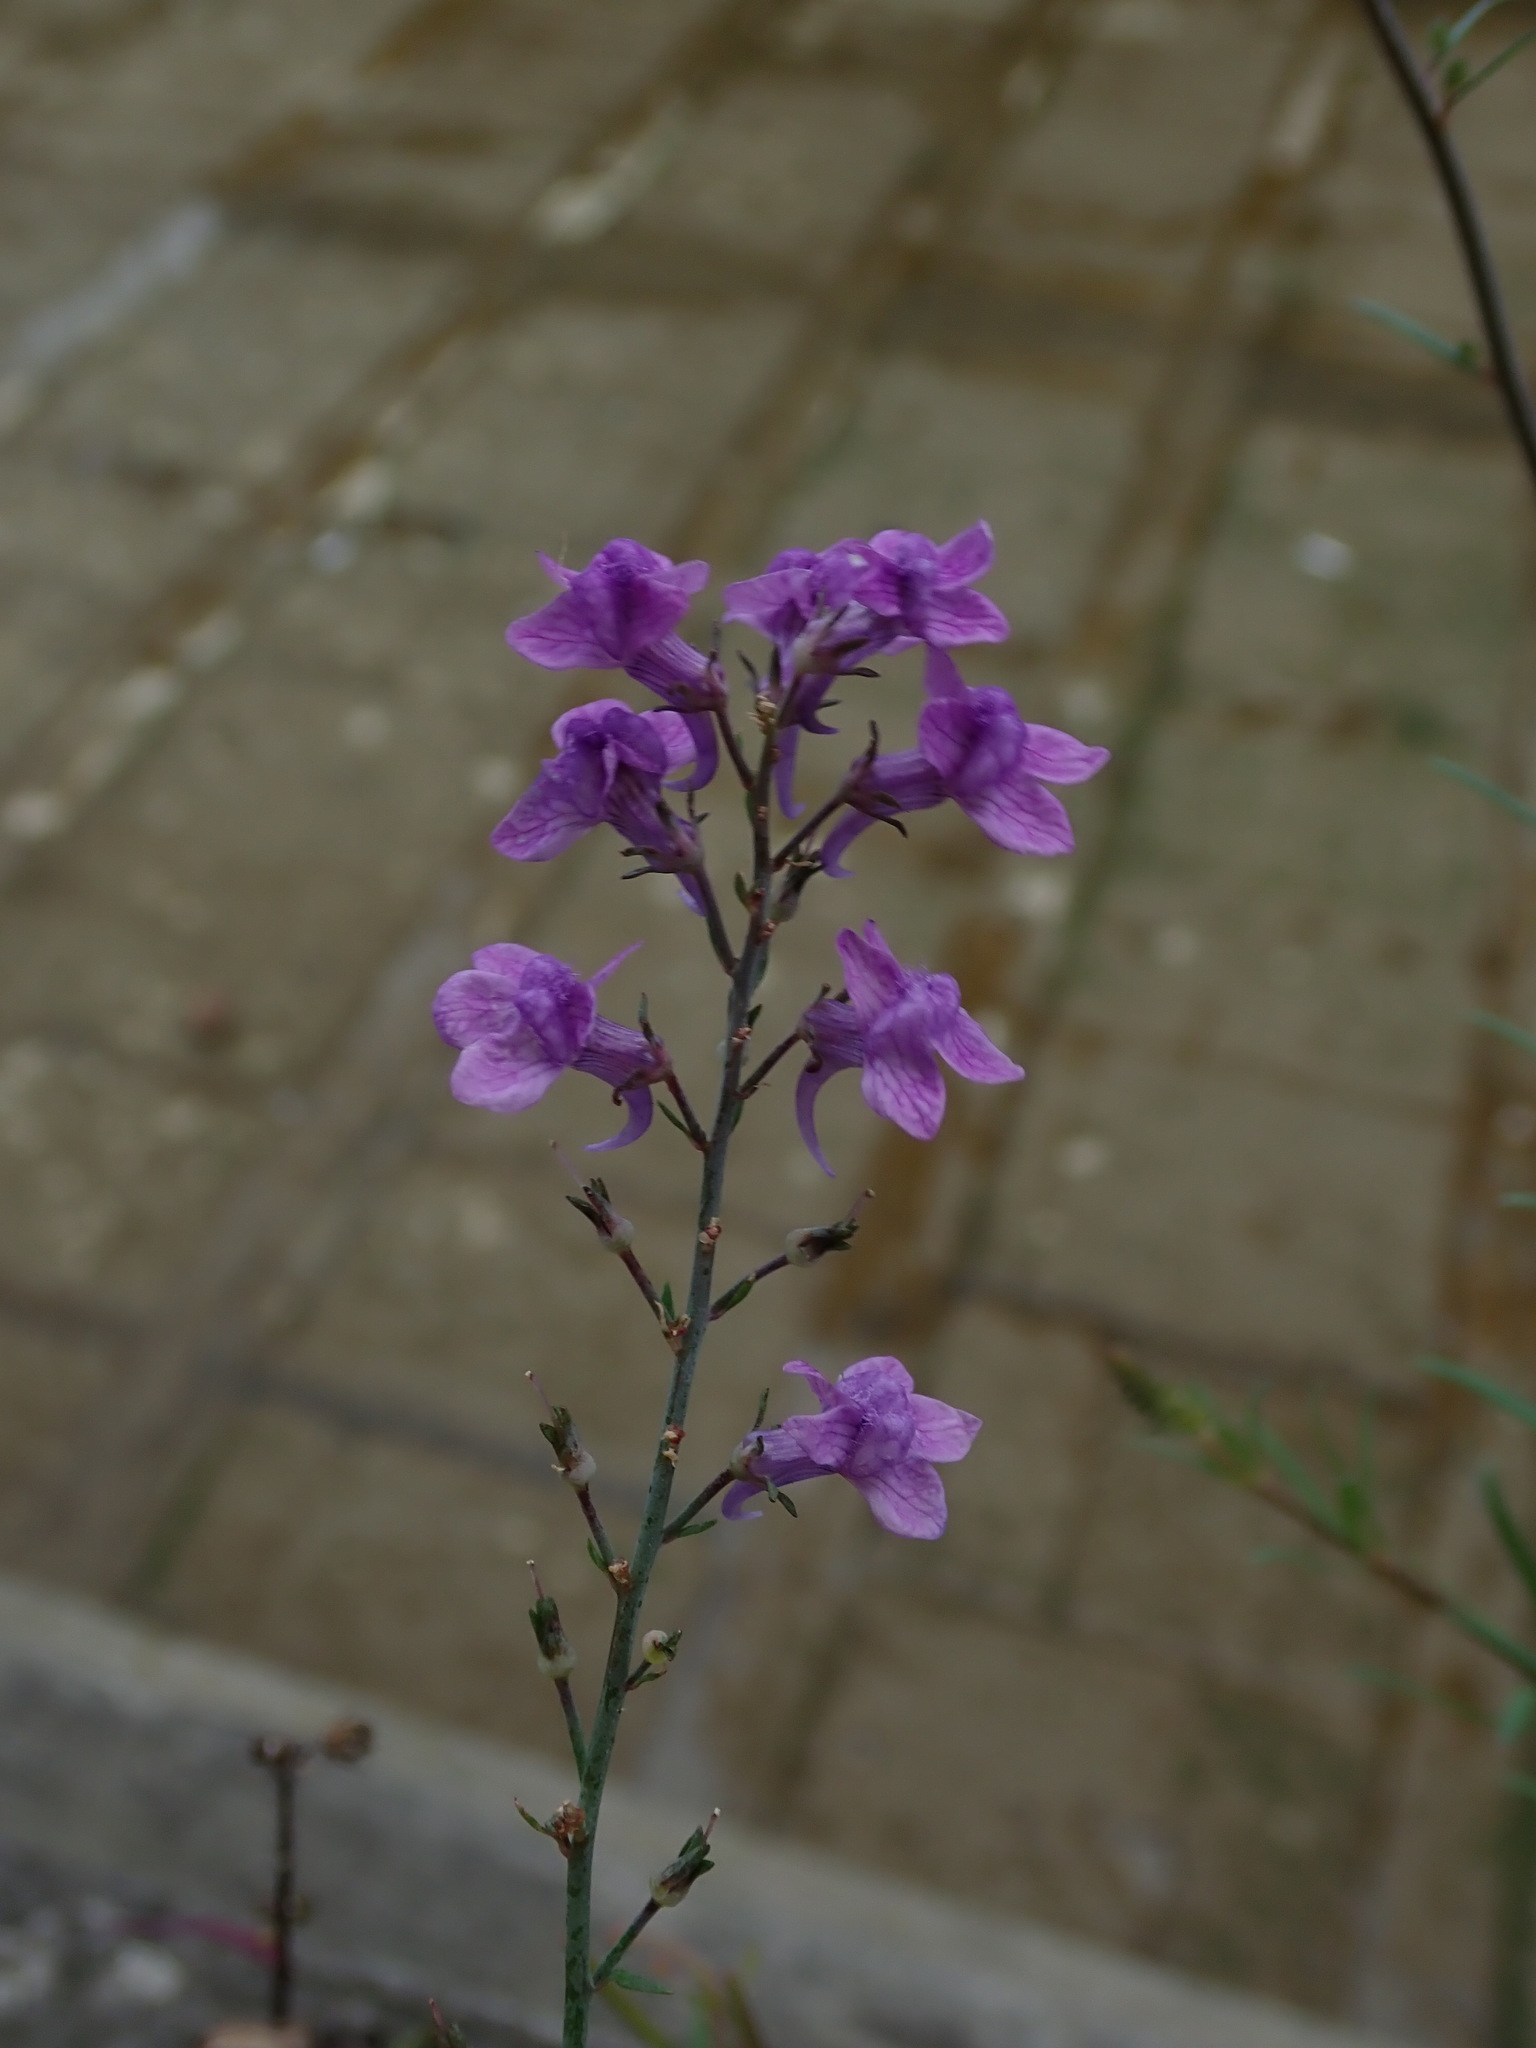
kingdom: Plantae
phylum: Tracheophyta
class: Magnoliopsida
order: Lamiales
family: Plantaginaceae
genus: Linaria
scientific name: Linaria purpurea
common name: Purple toadflax
